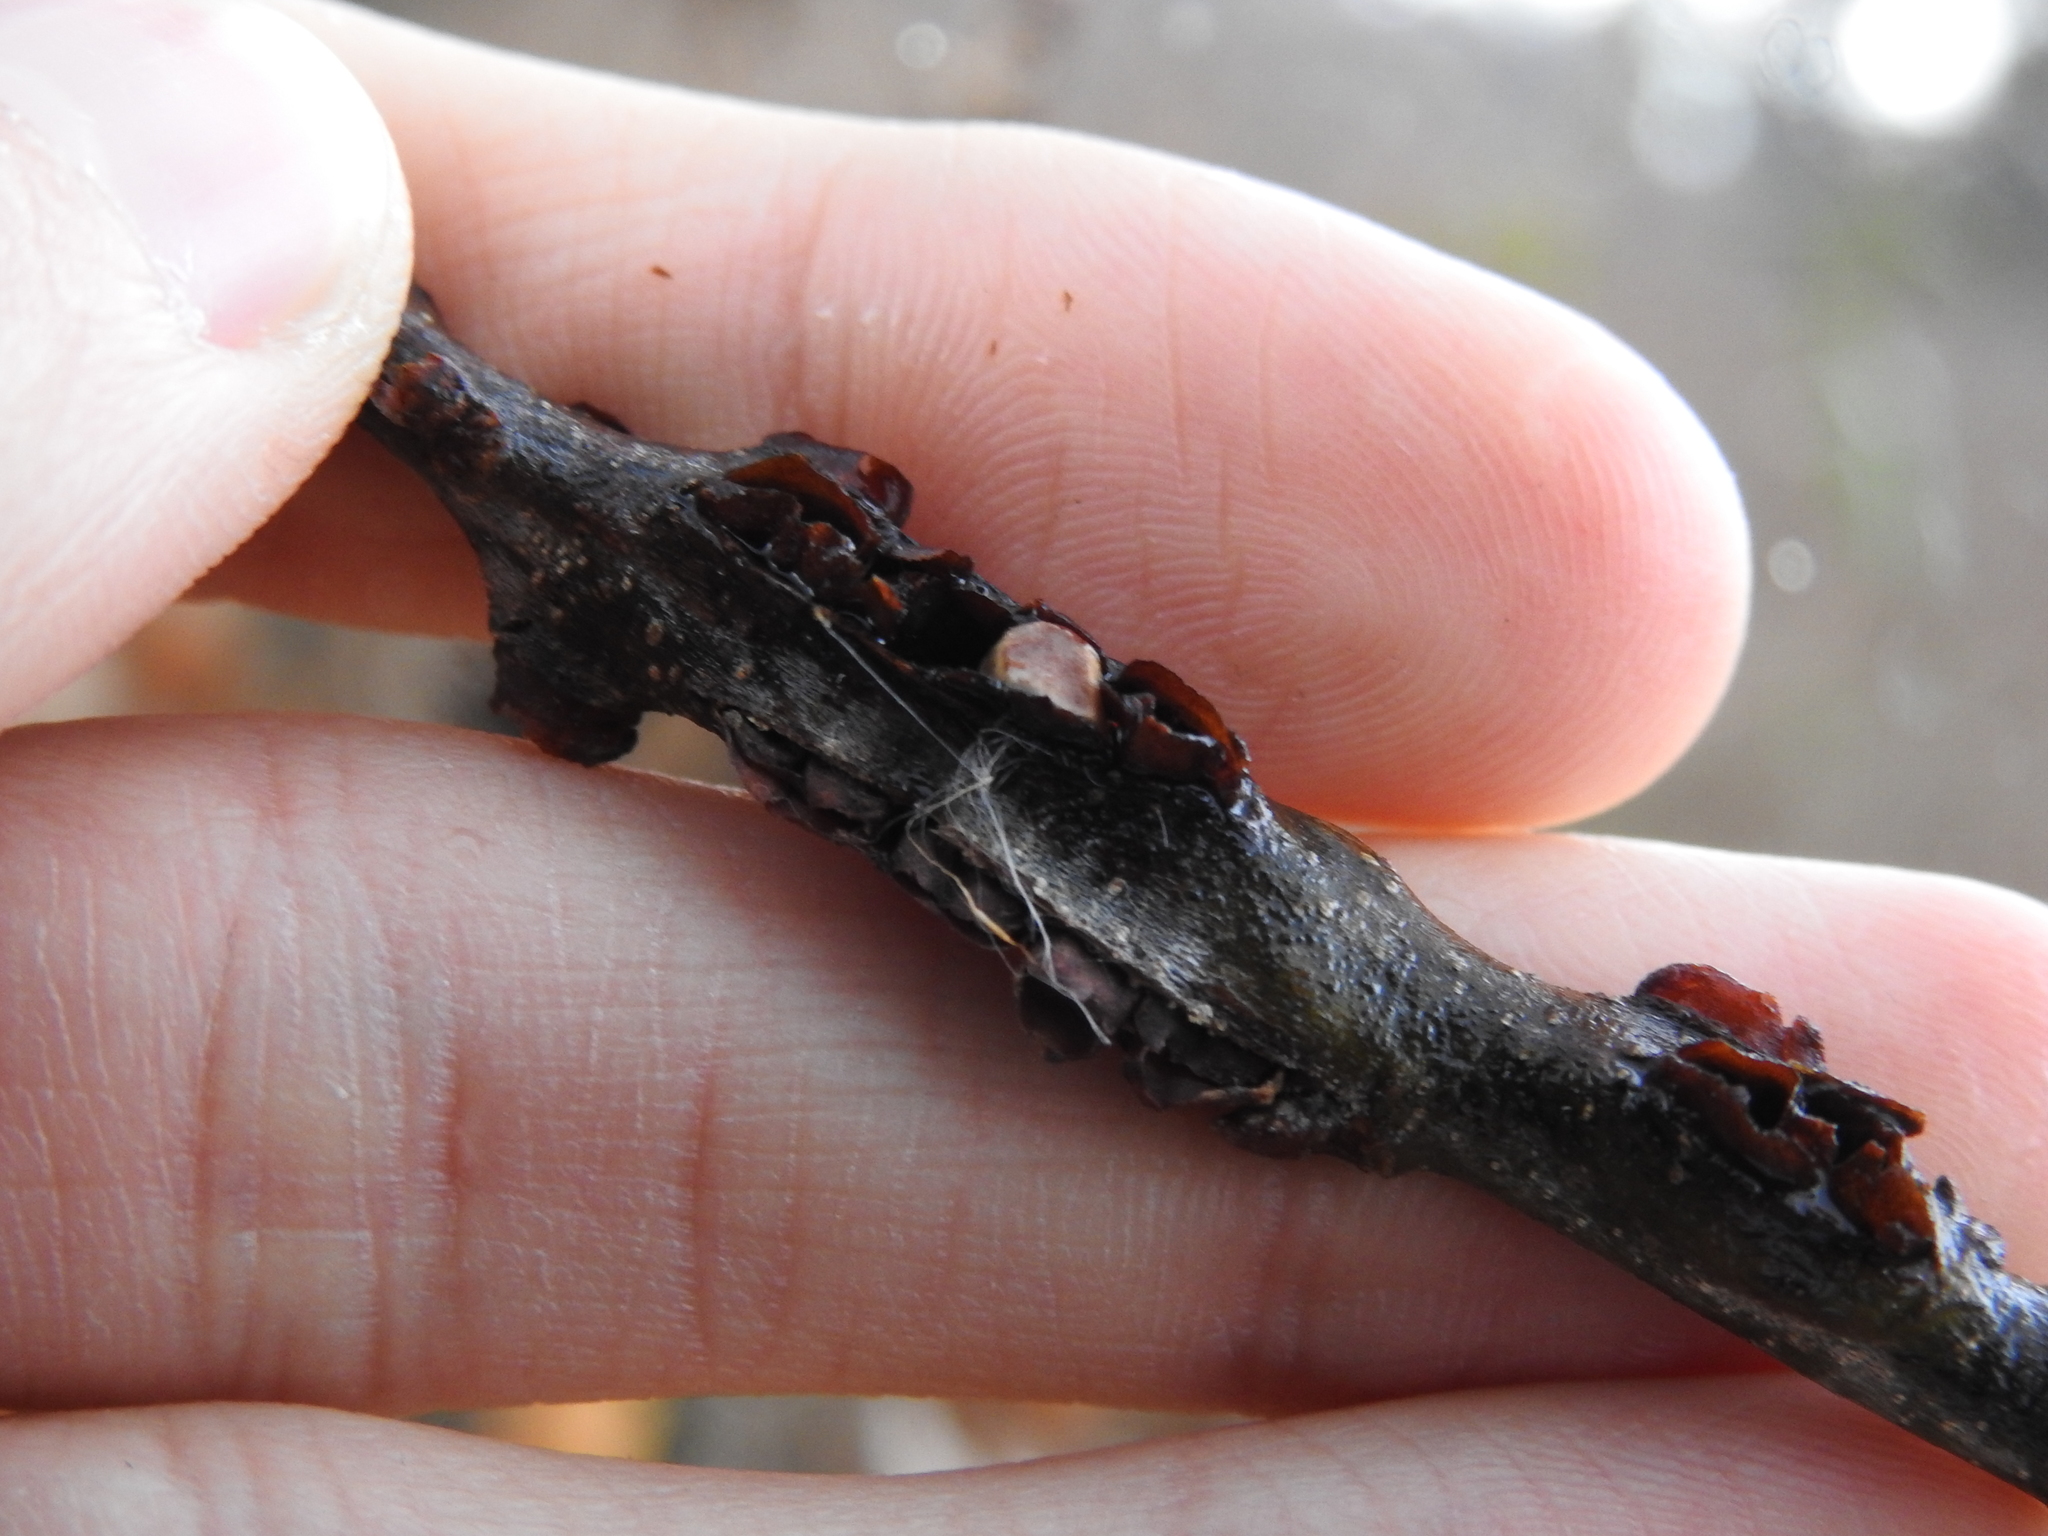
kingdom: Animalia
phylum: Arthropoda
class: Insecta
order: Hymenoptera
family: Cynipidae
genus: Callirhytis
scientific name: Callirhytis
